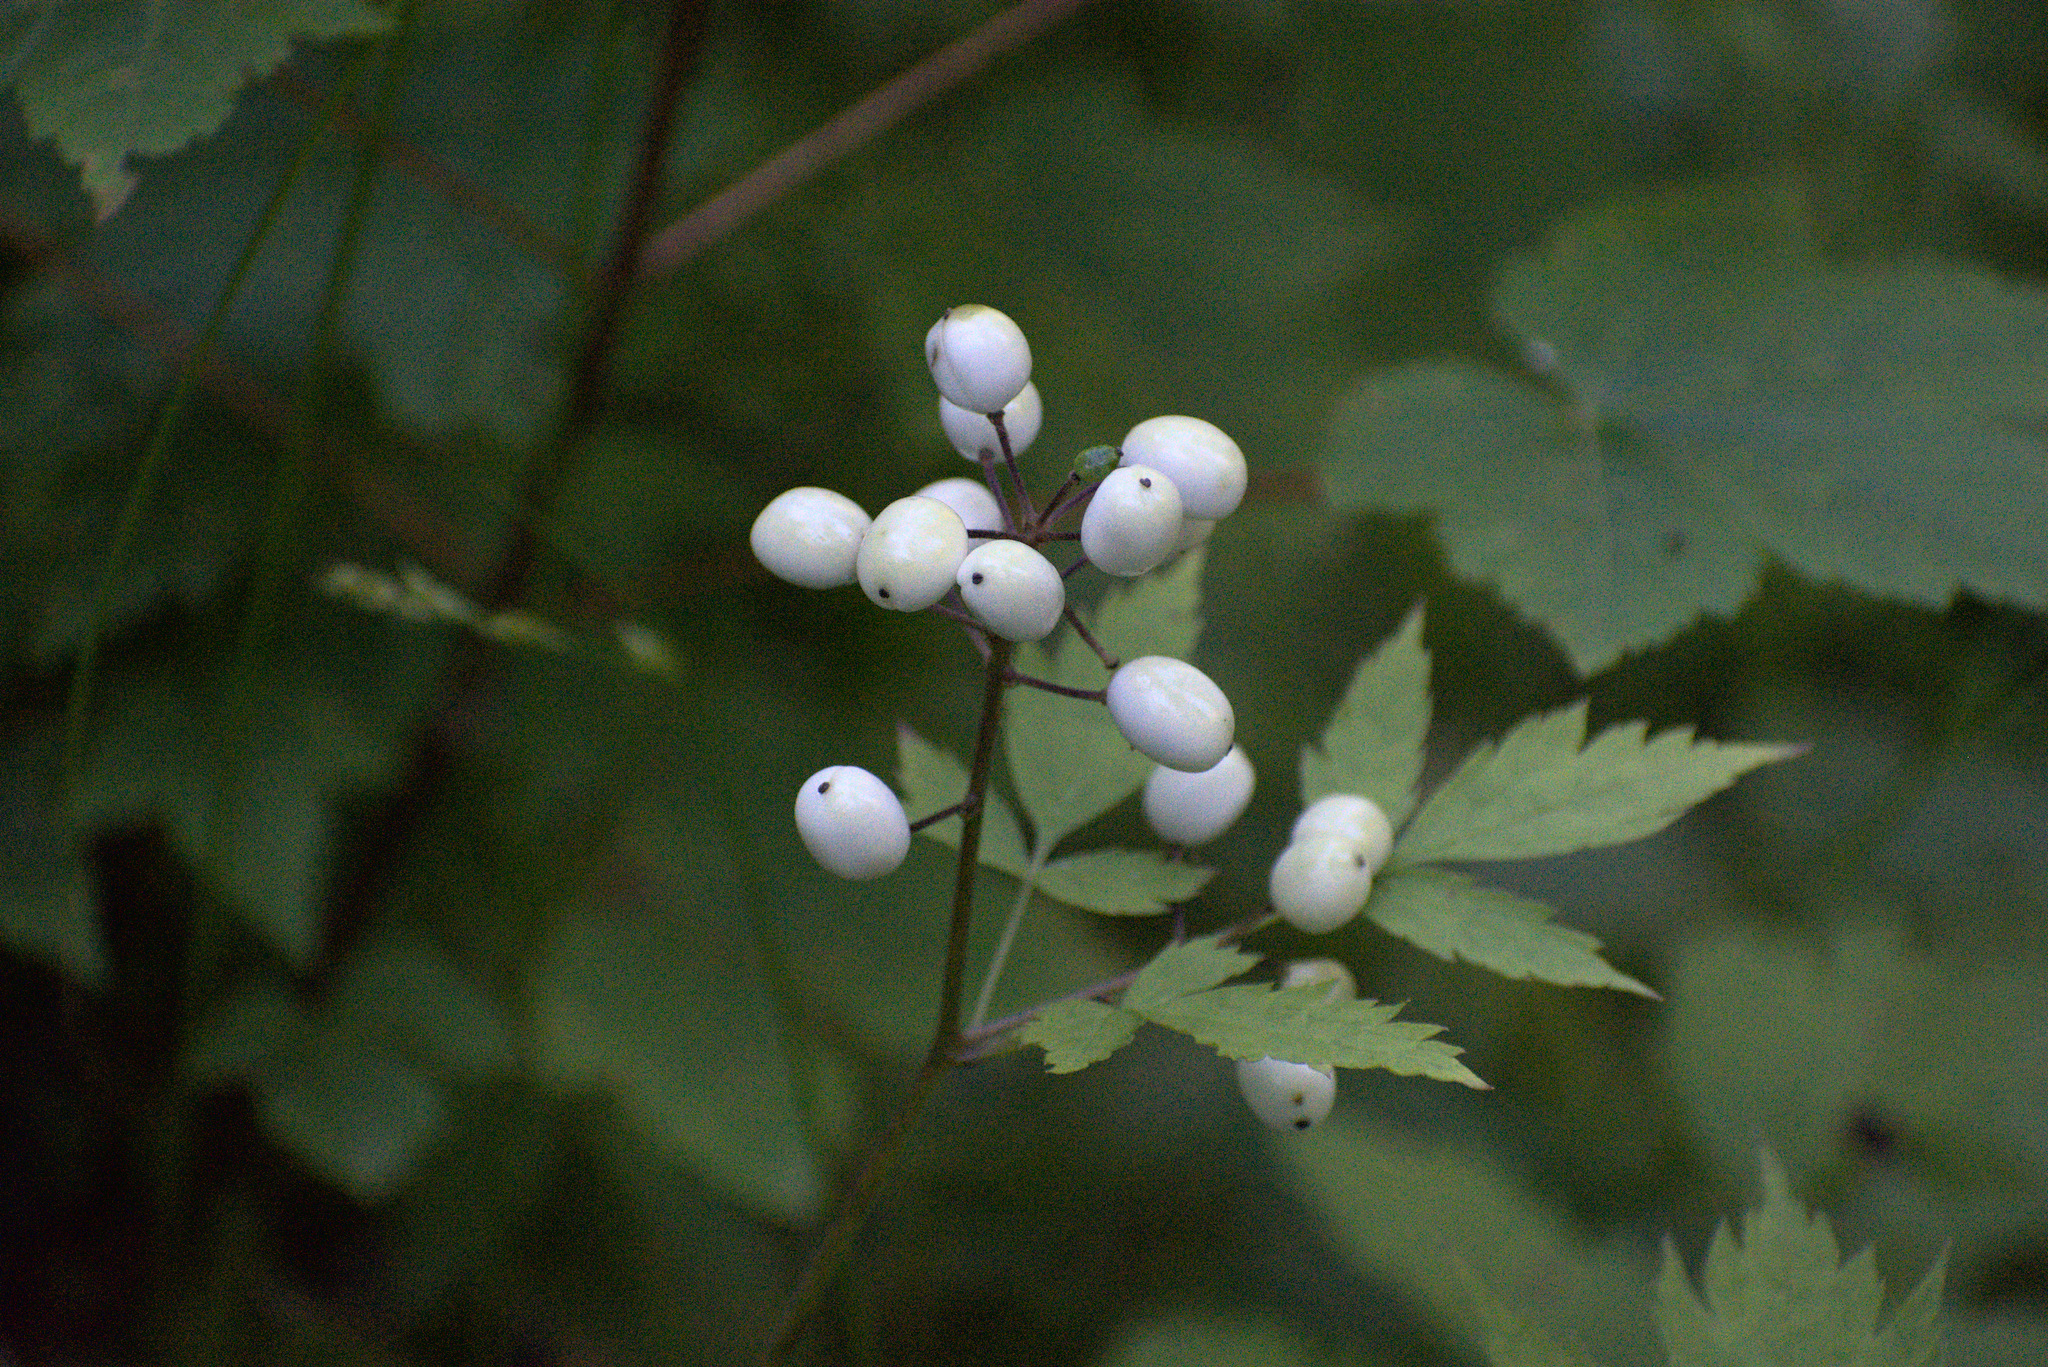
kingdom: Plantae
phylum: Tracheophyta
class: Magnoliopsida
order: Ranunculales
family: Ranunculaceae
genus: Actaea
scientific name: Actaea rubra
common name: Red baneberry
